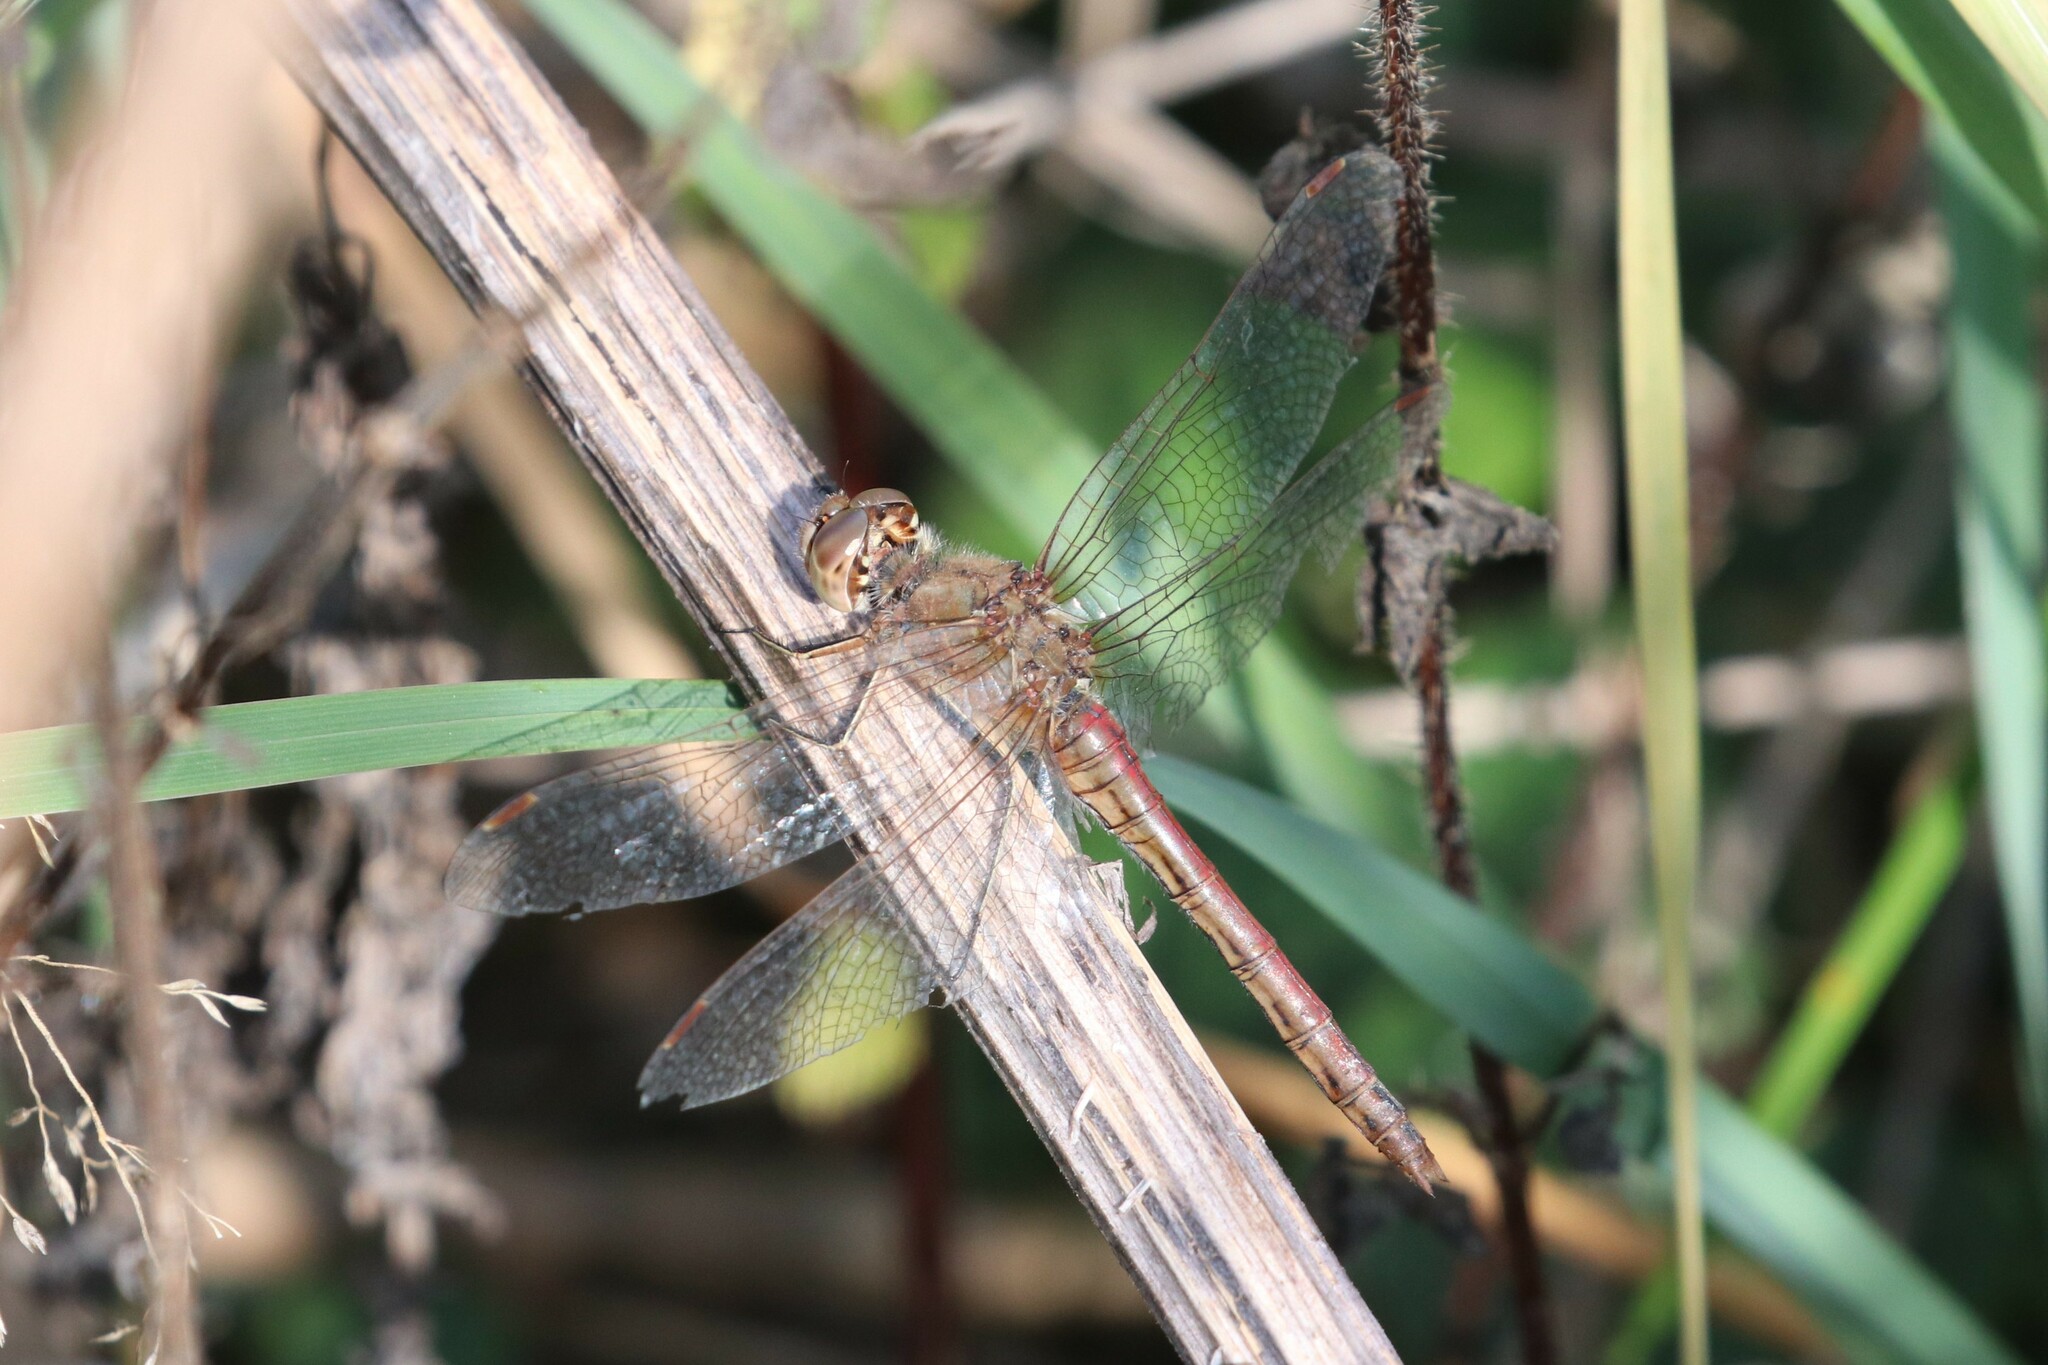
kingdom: Animalia
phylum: Arthropoda
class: Insecta
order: Odonata
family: Libellulidae
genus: Sympetrum
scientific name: Sympetrum vulgatum
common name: Vagrant darter
